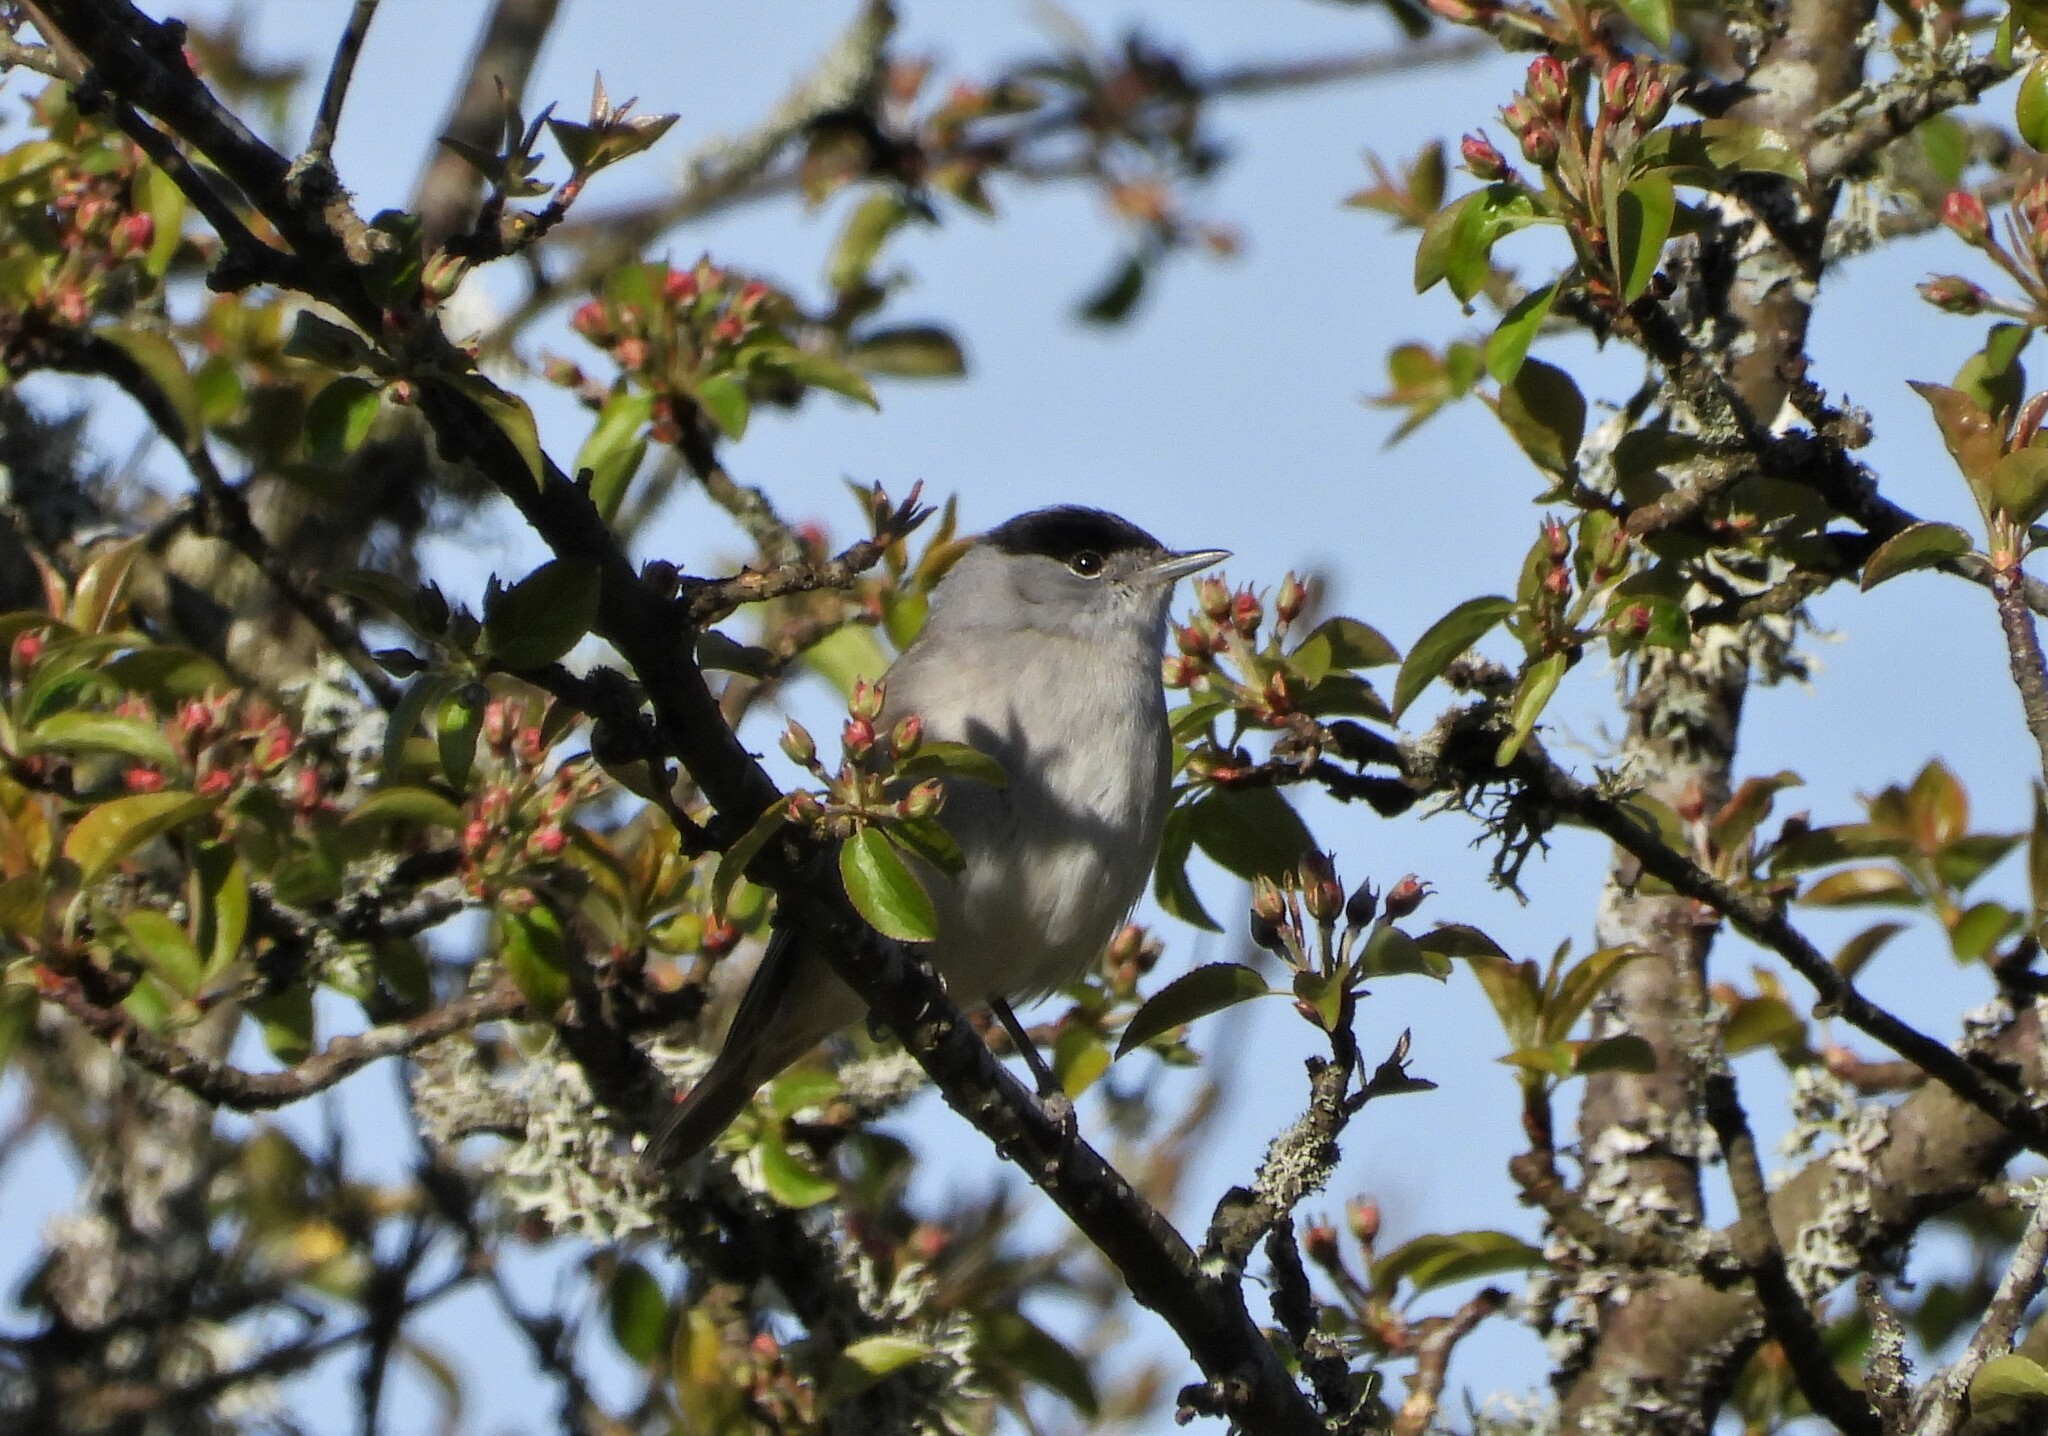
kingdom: Animalia
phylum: Chordata
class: Aves
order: Passeriformes
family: Sylviidae
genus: Sylvia
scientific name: Sylvia atricapilla
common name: Eurasian blackcap
